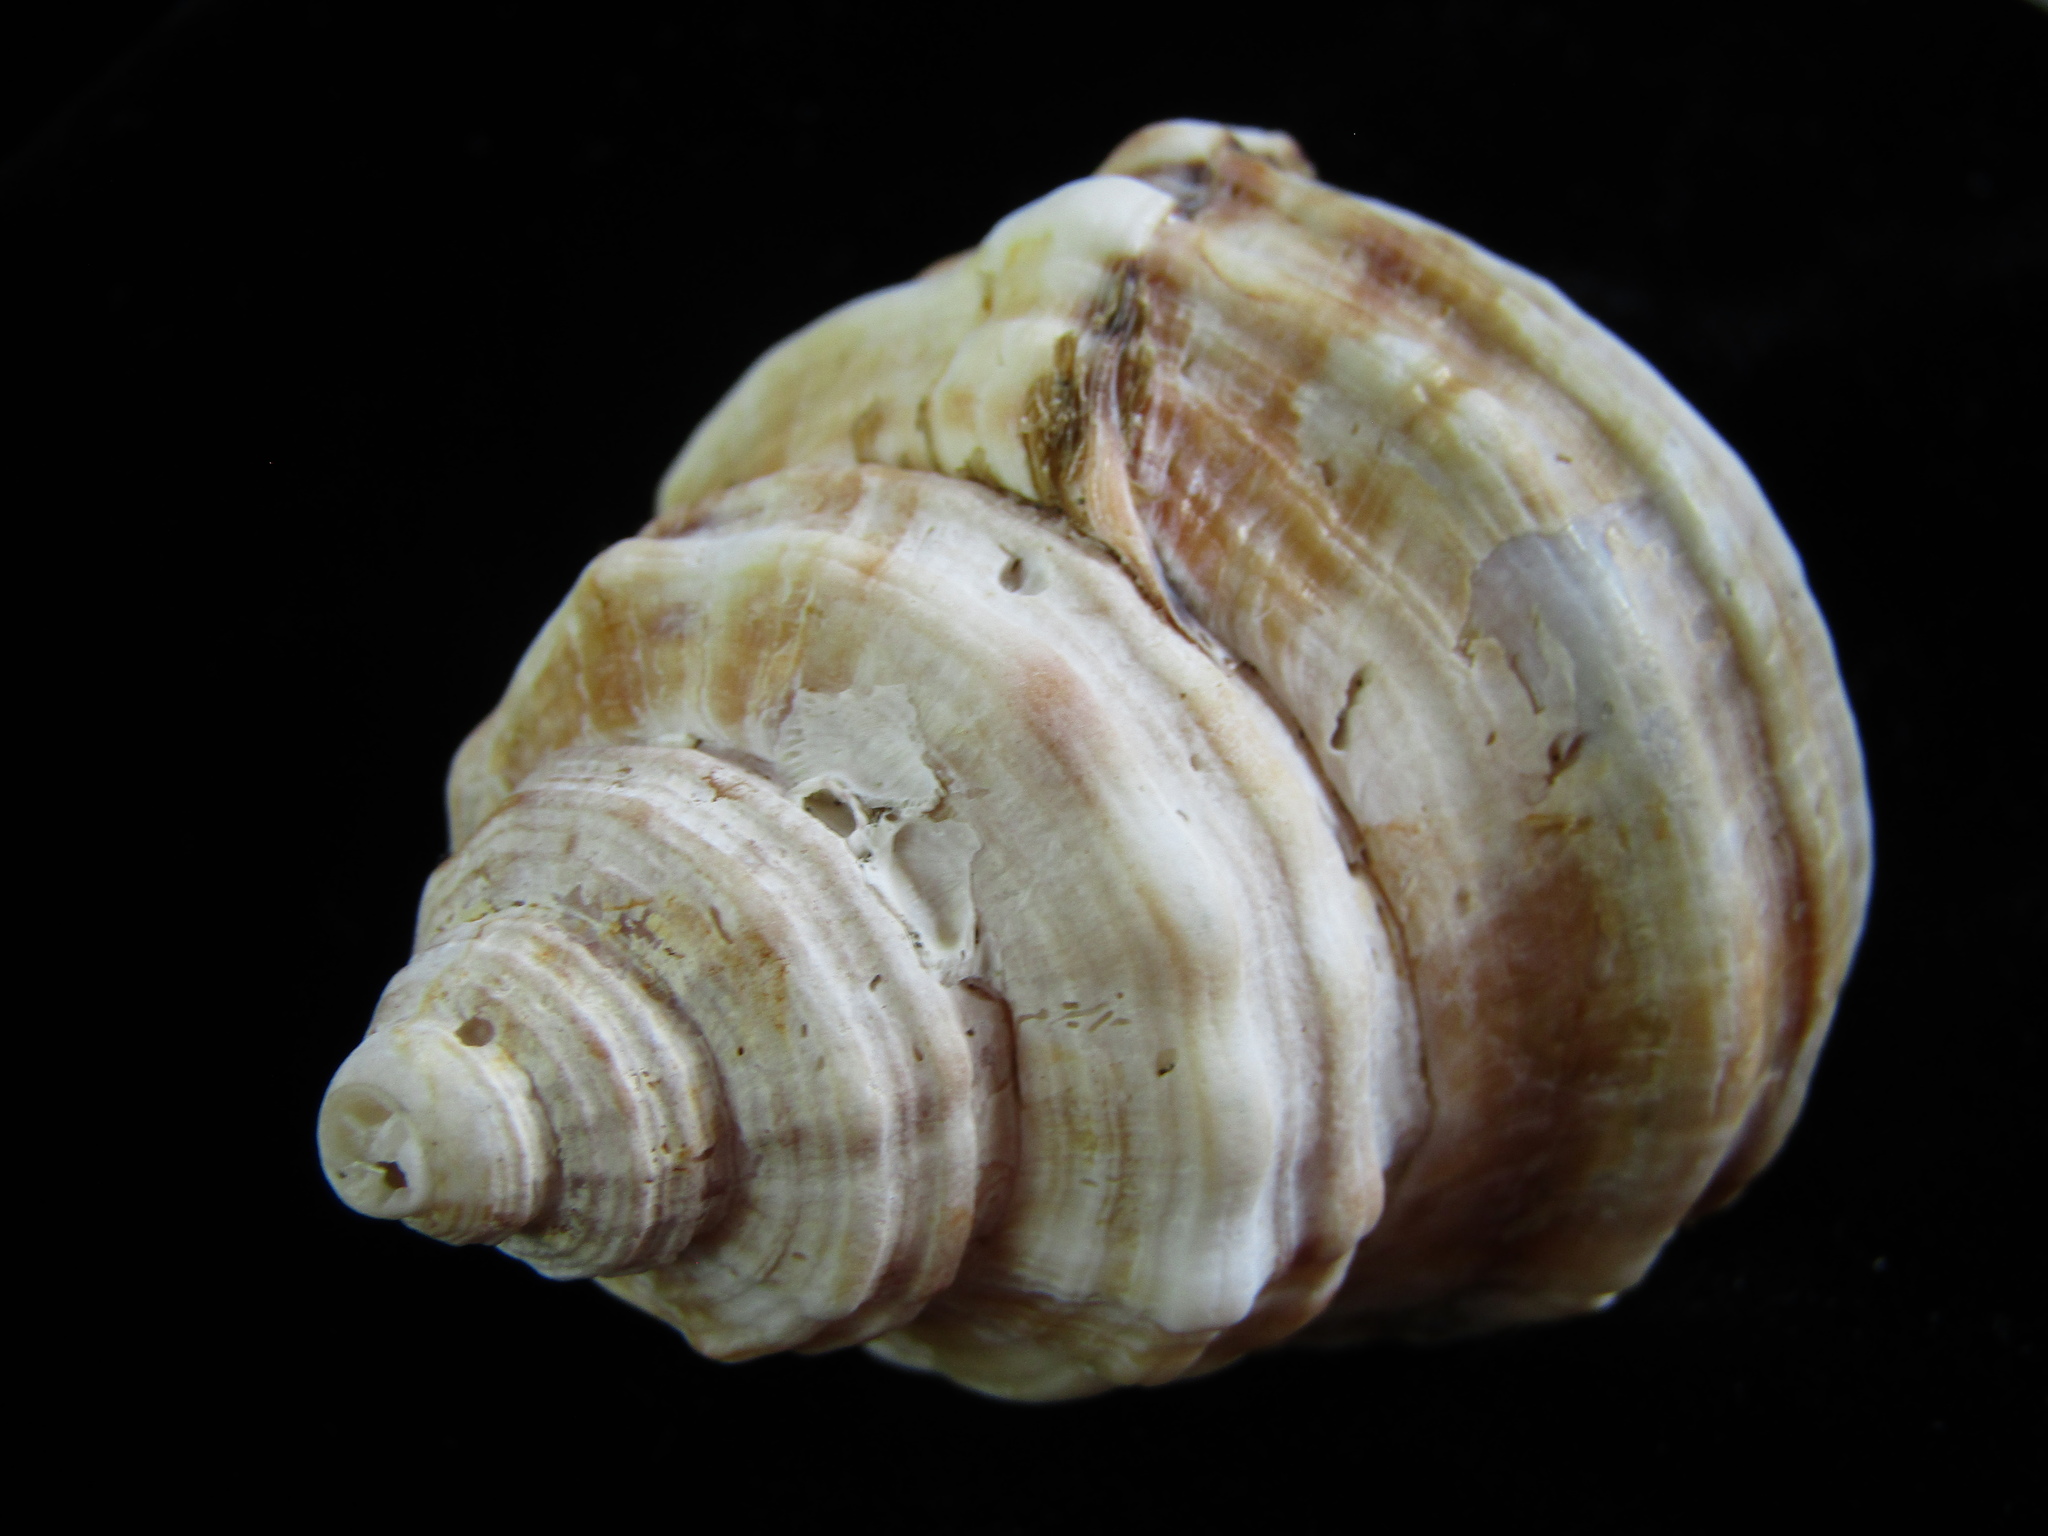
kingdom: Animalia
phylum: Mollusca
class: Gastropoda
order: Littorinimorpha
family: Cymatiidae
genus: Monoplex
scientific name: Monoplex parthenopeus
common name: Giant triton
